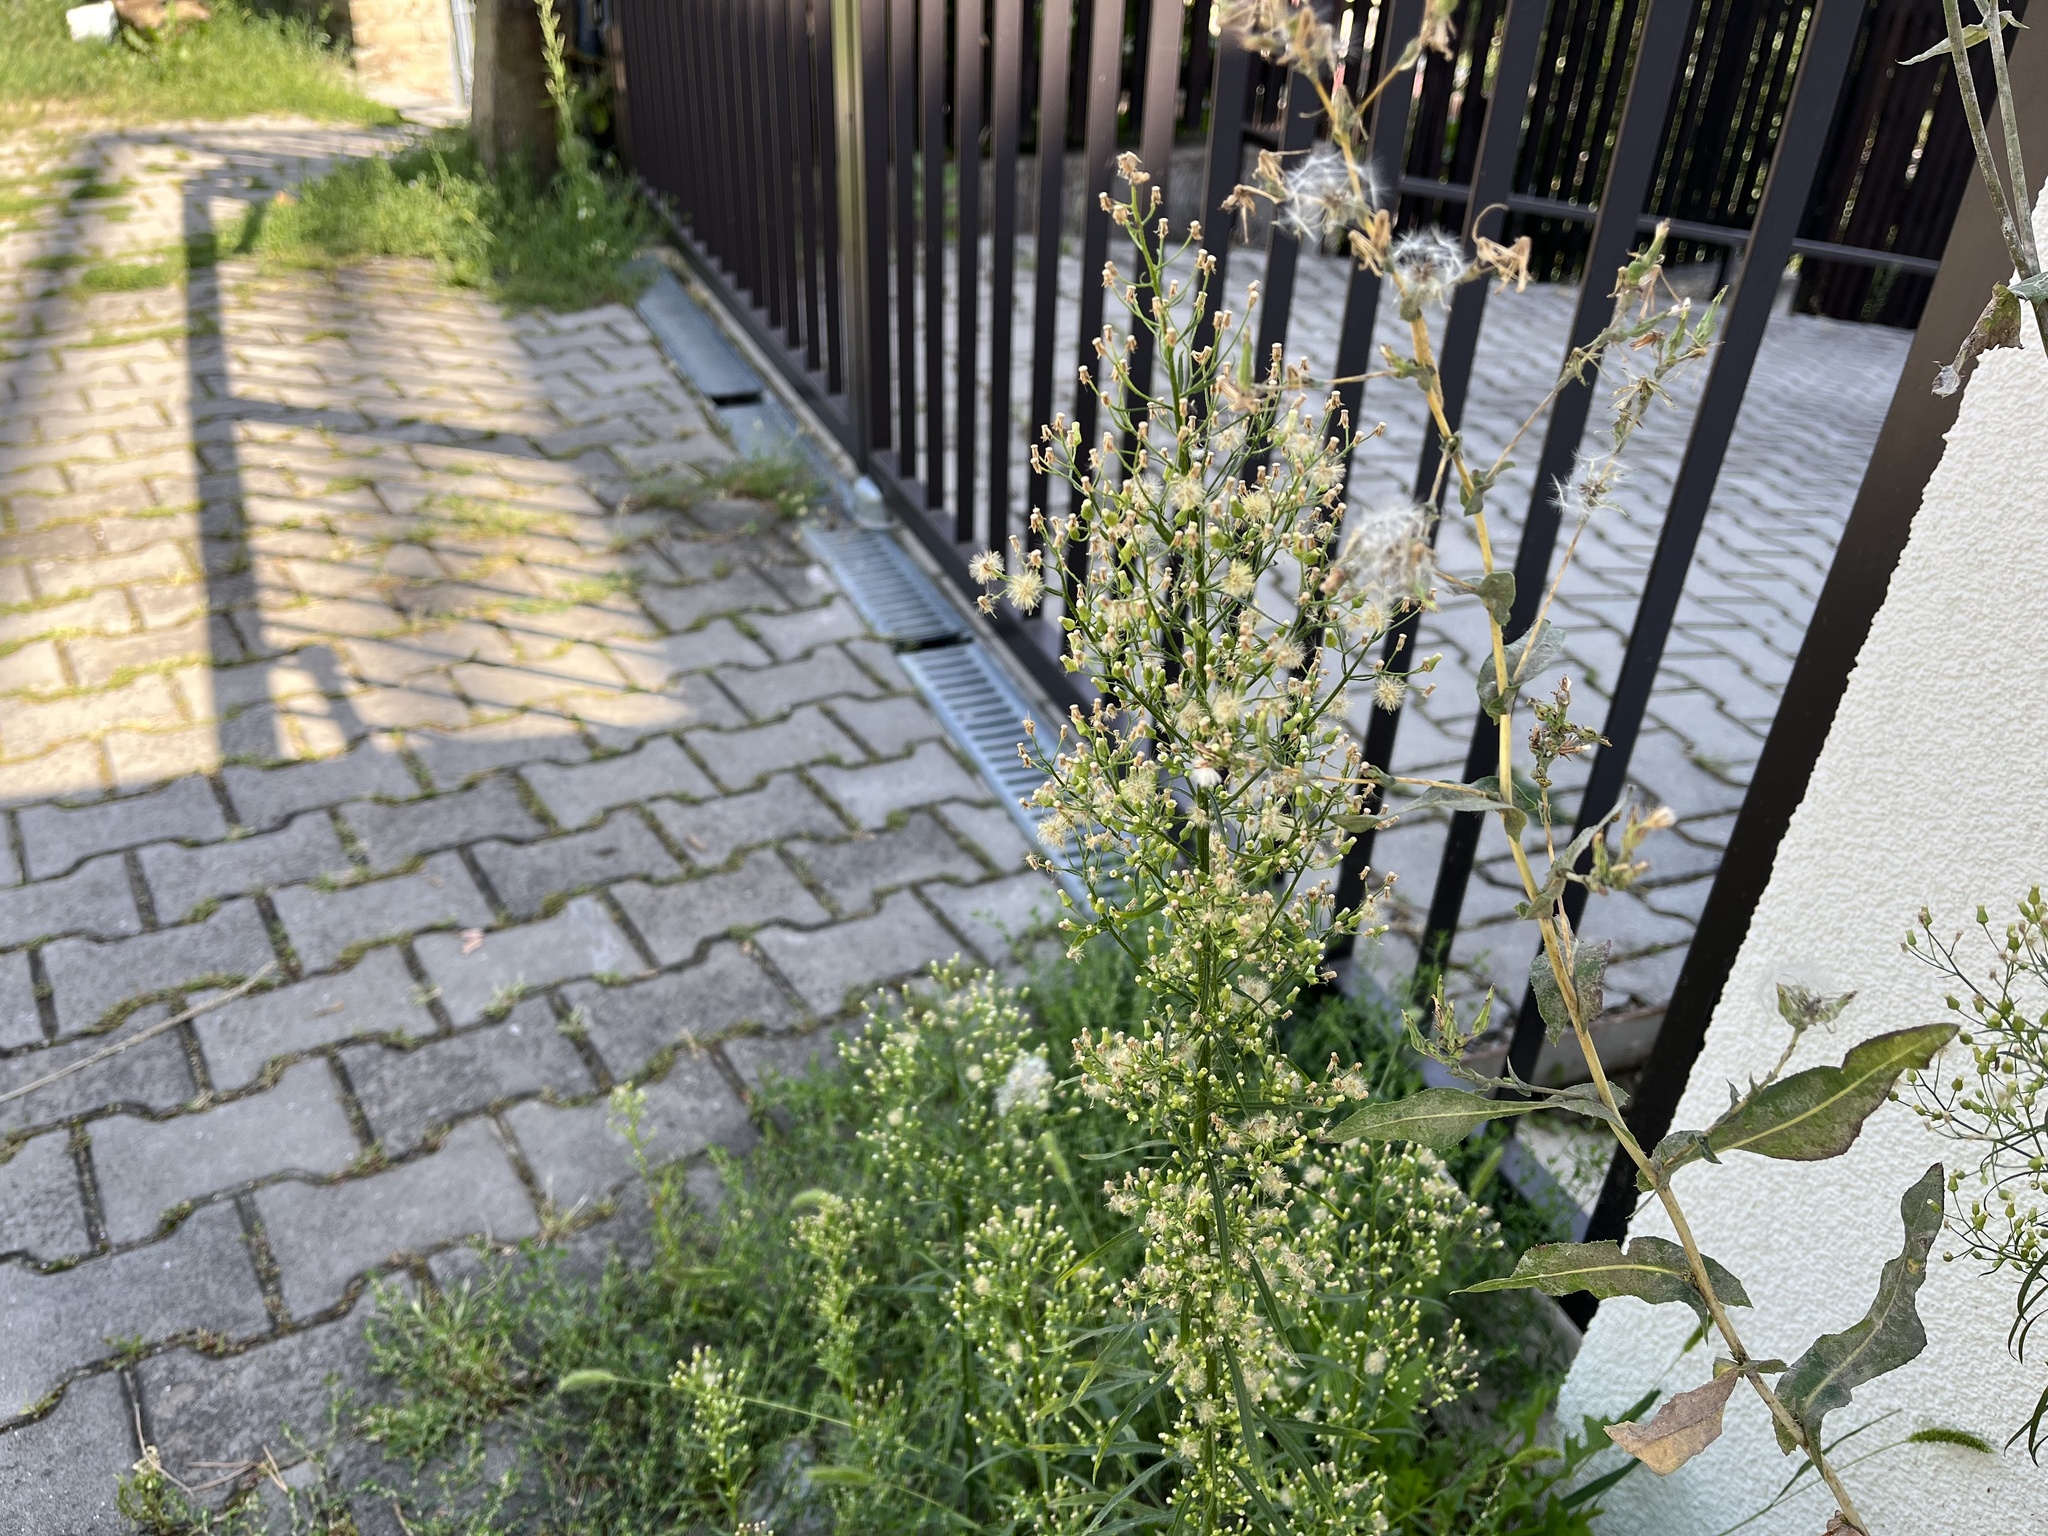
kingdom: Plantae
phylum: Tracheophyta
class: Magnoliopsida
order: Asterales
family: Asteraceae
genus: Erigeron
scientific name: Erigeron canadensis
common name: Canadian fleabane
